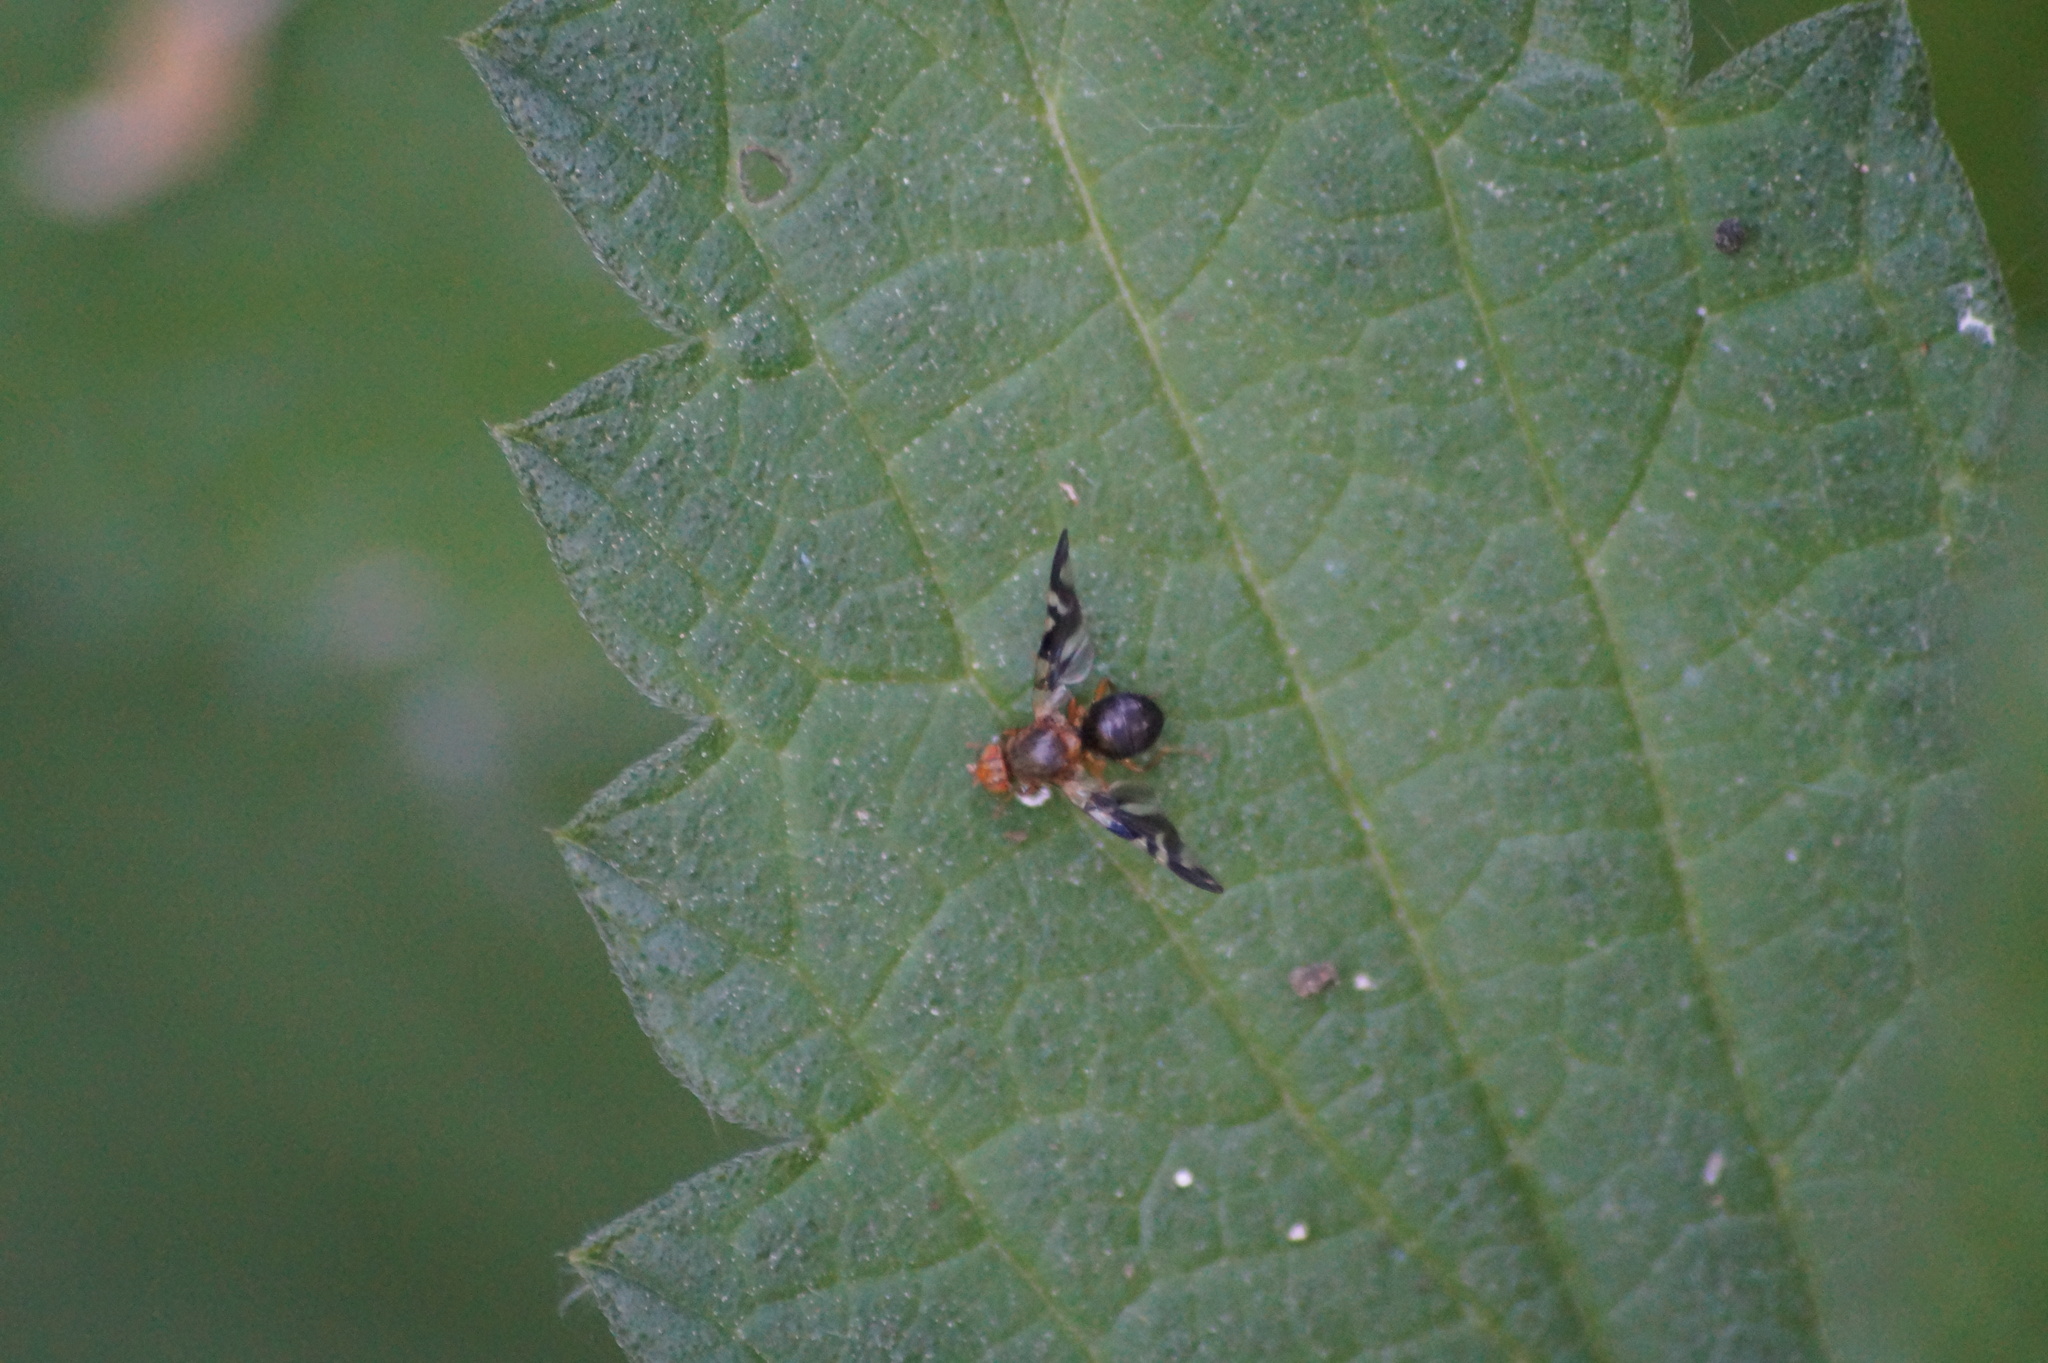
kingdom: Animalia
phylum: Arthropoda
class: Insecta
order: Diptera
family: Tephritidae
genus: Philophylla
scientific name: Philophylla caesio
